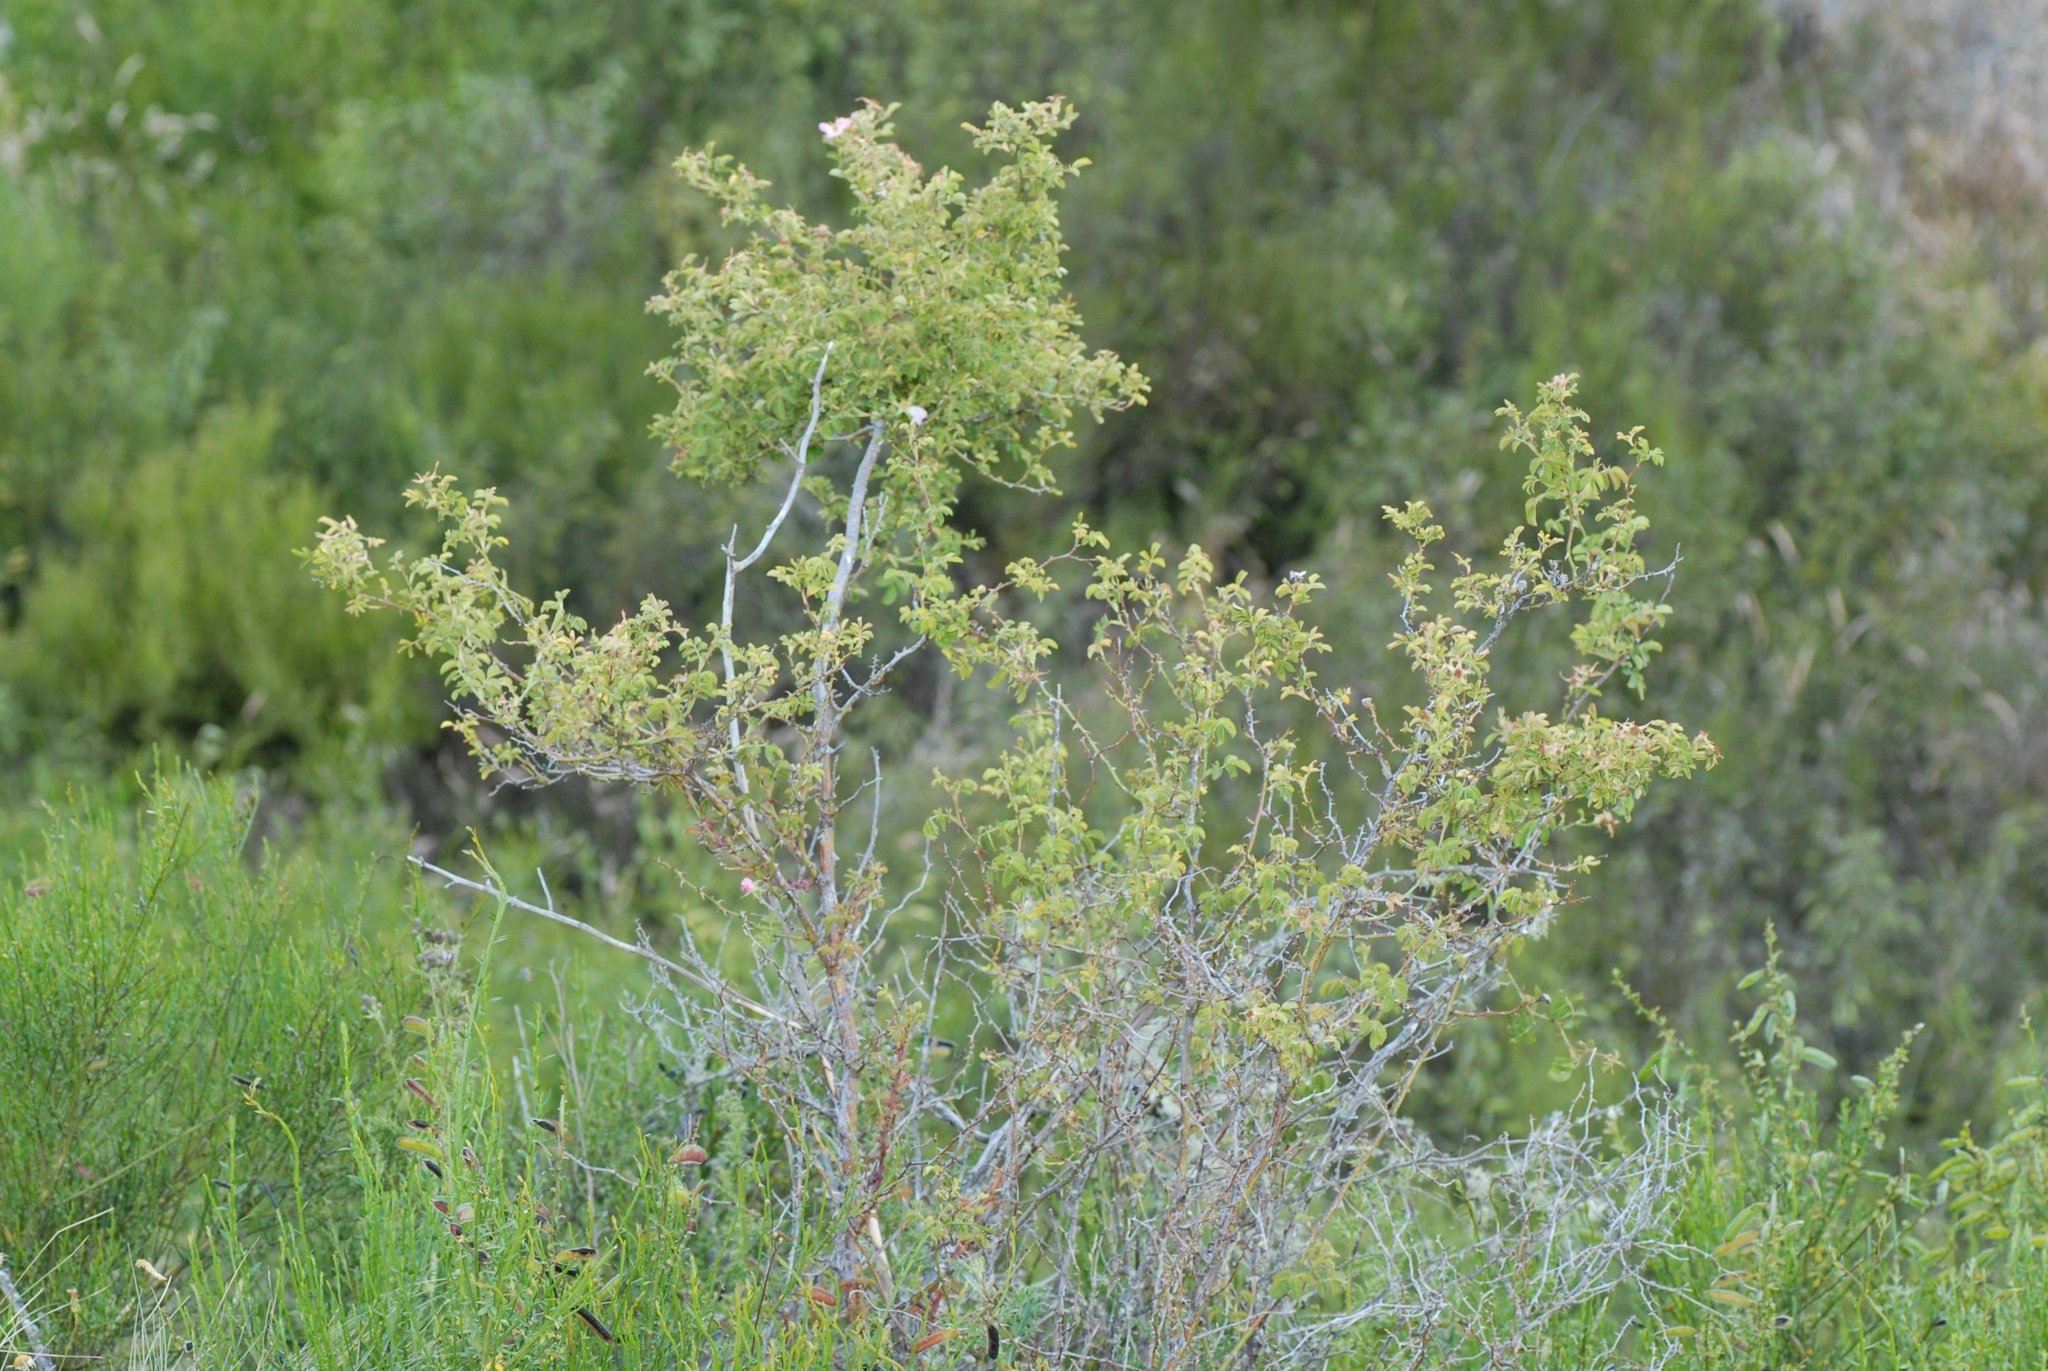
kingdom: Plantae
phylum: Tracheophyta
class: Magnoliopsida
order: Rosales
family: Rosaceae
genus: Rosa
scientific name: Rosa rubiginosa
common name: Sweet-briar
